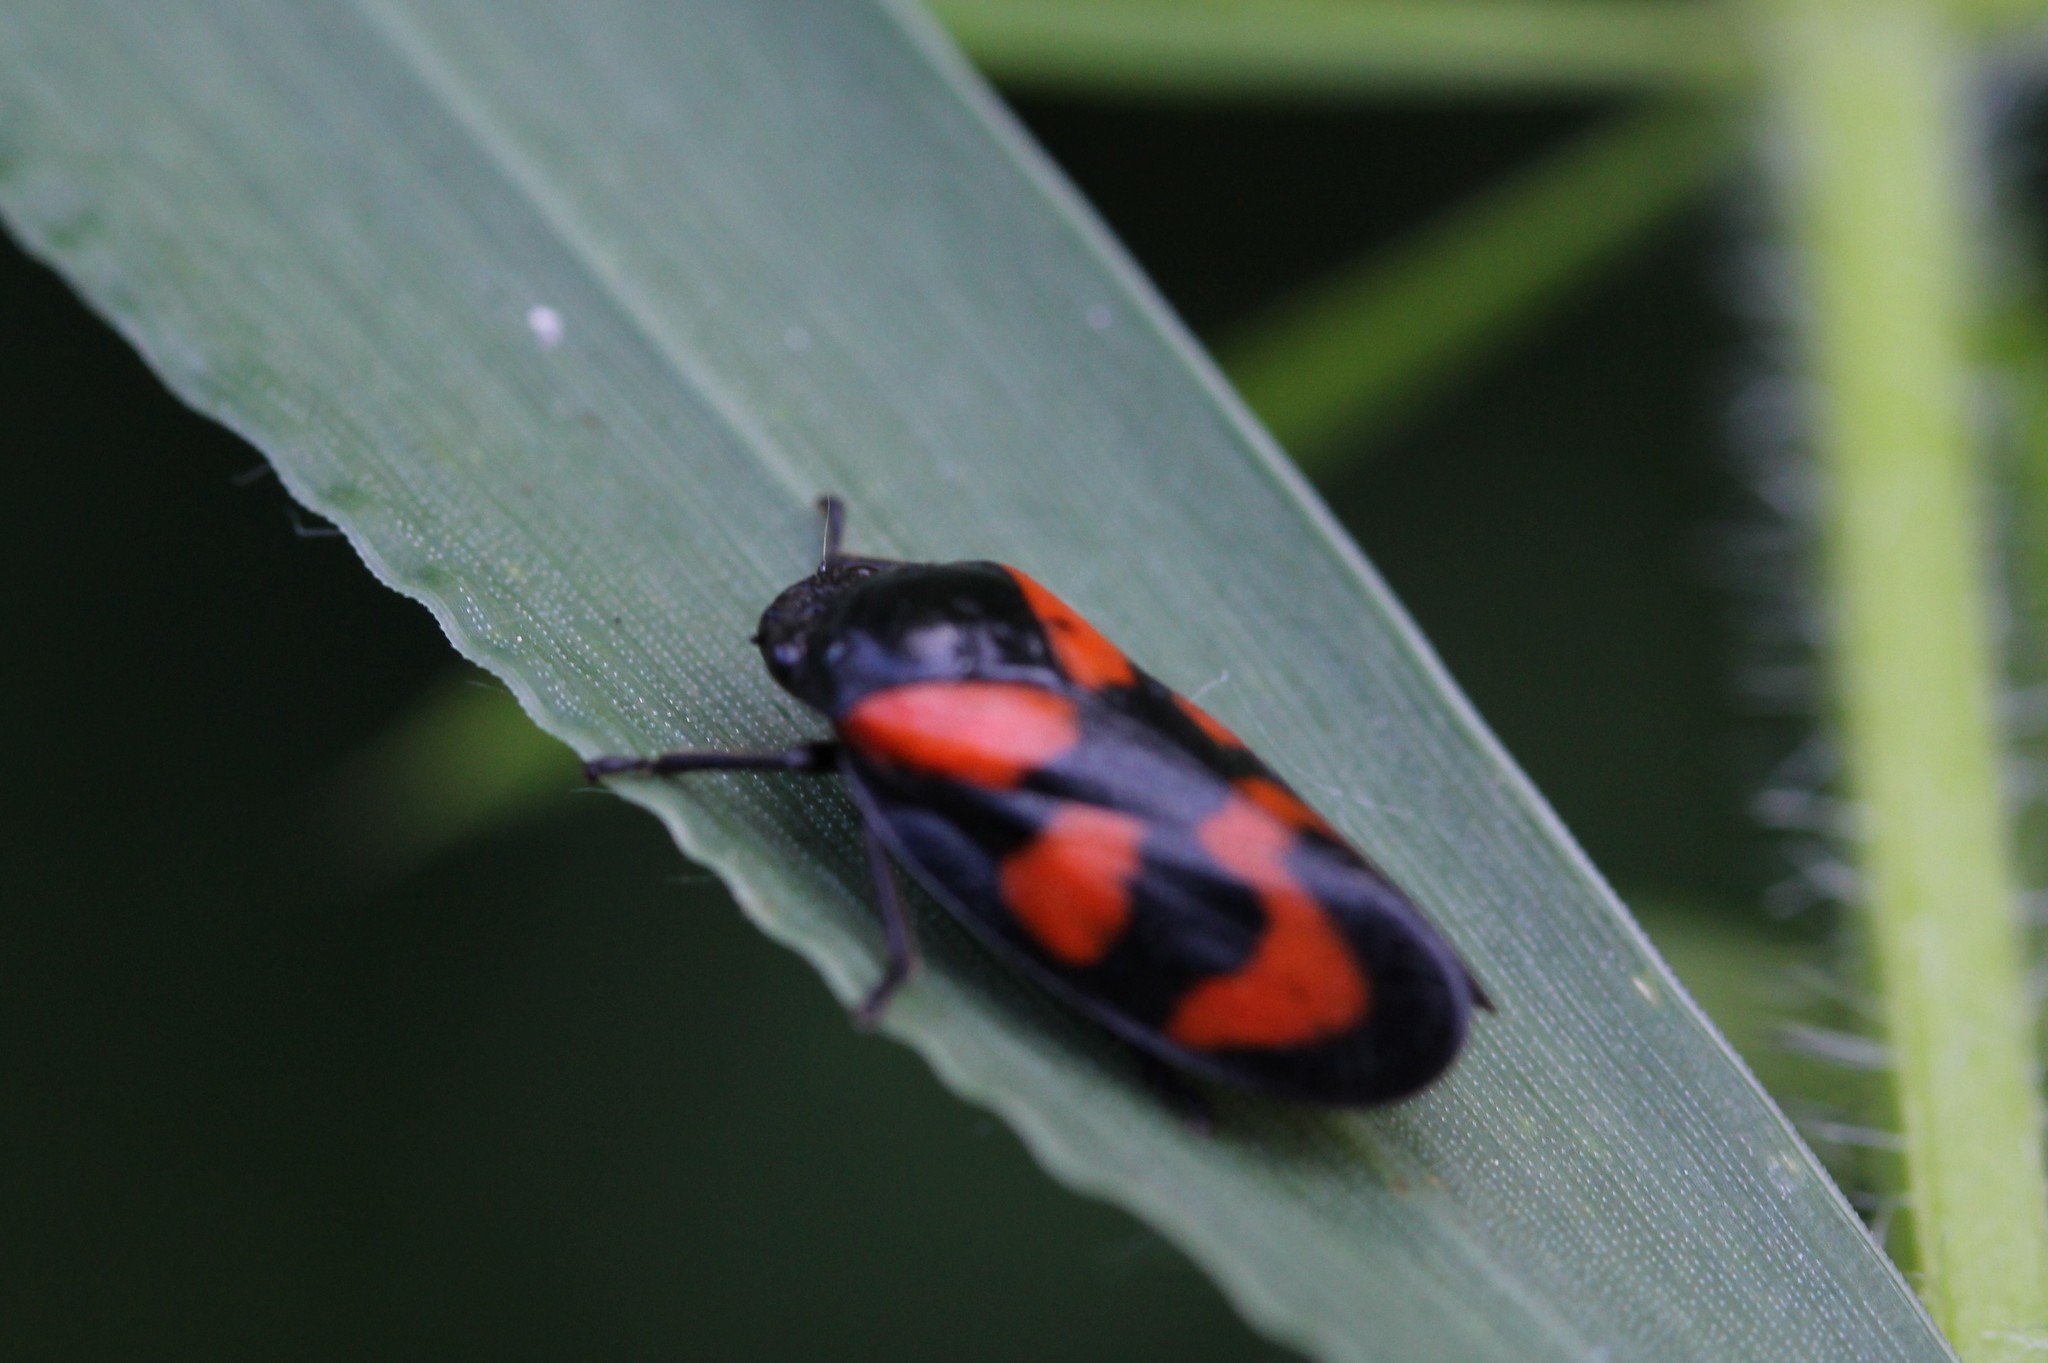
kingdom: Animalia
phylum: Arthropoda
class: Insecta
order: Hemiptera
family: Cercopidae
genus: Cercopis
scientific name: Cercopis vulnerata
